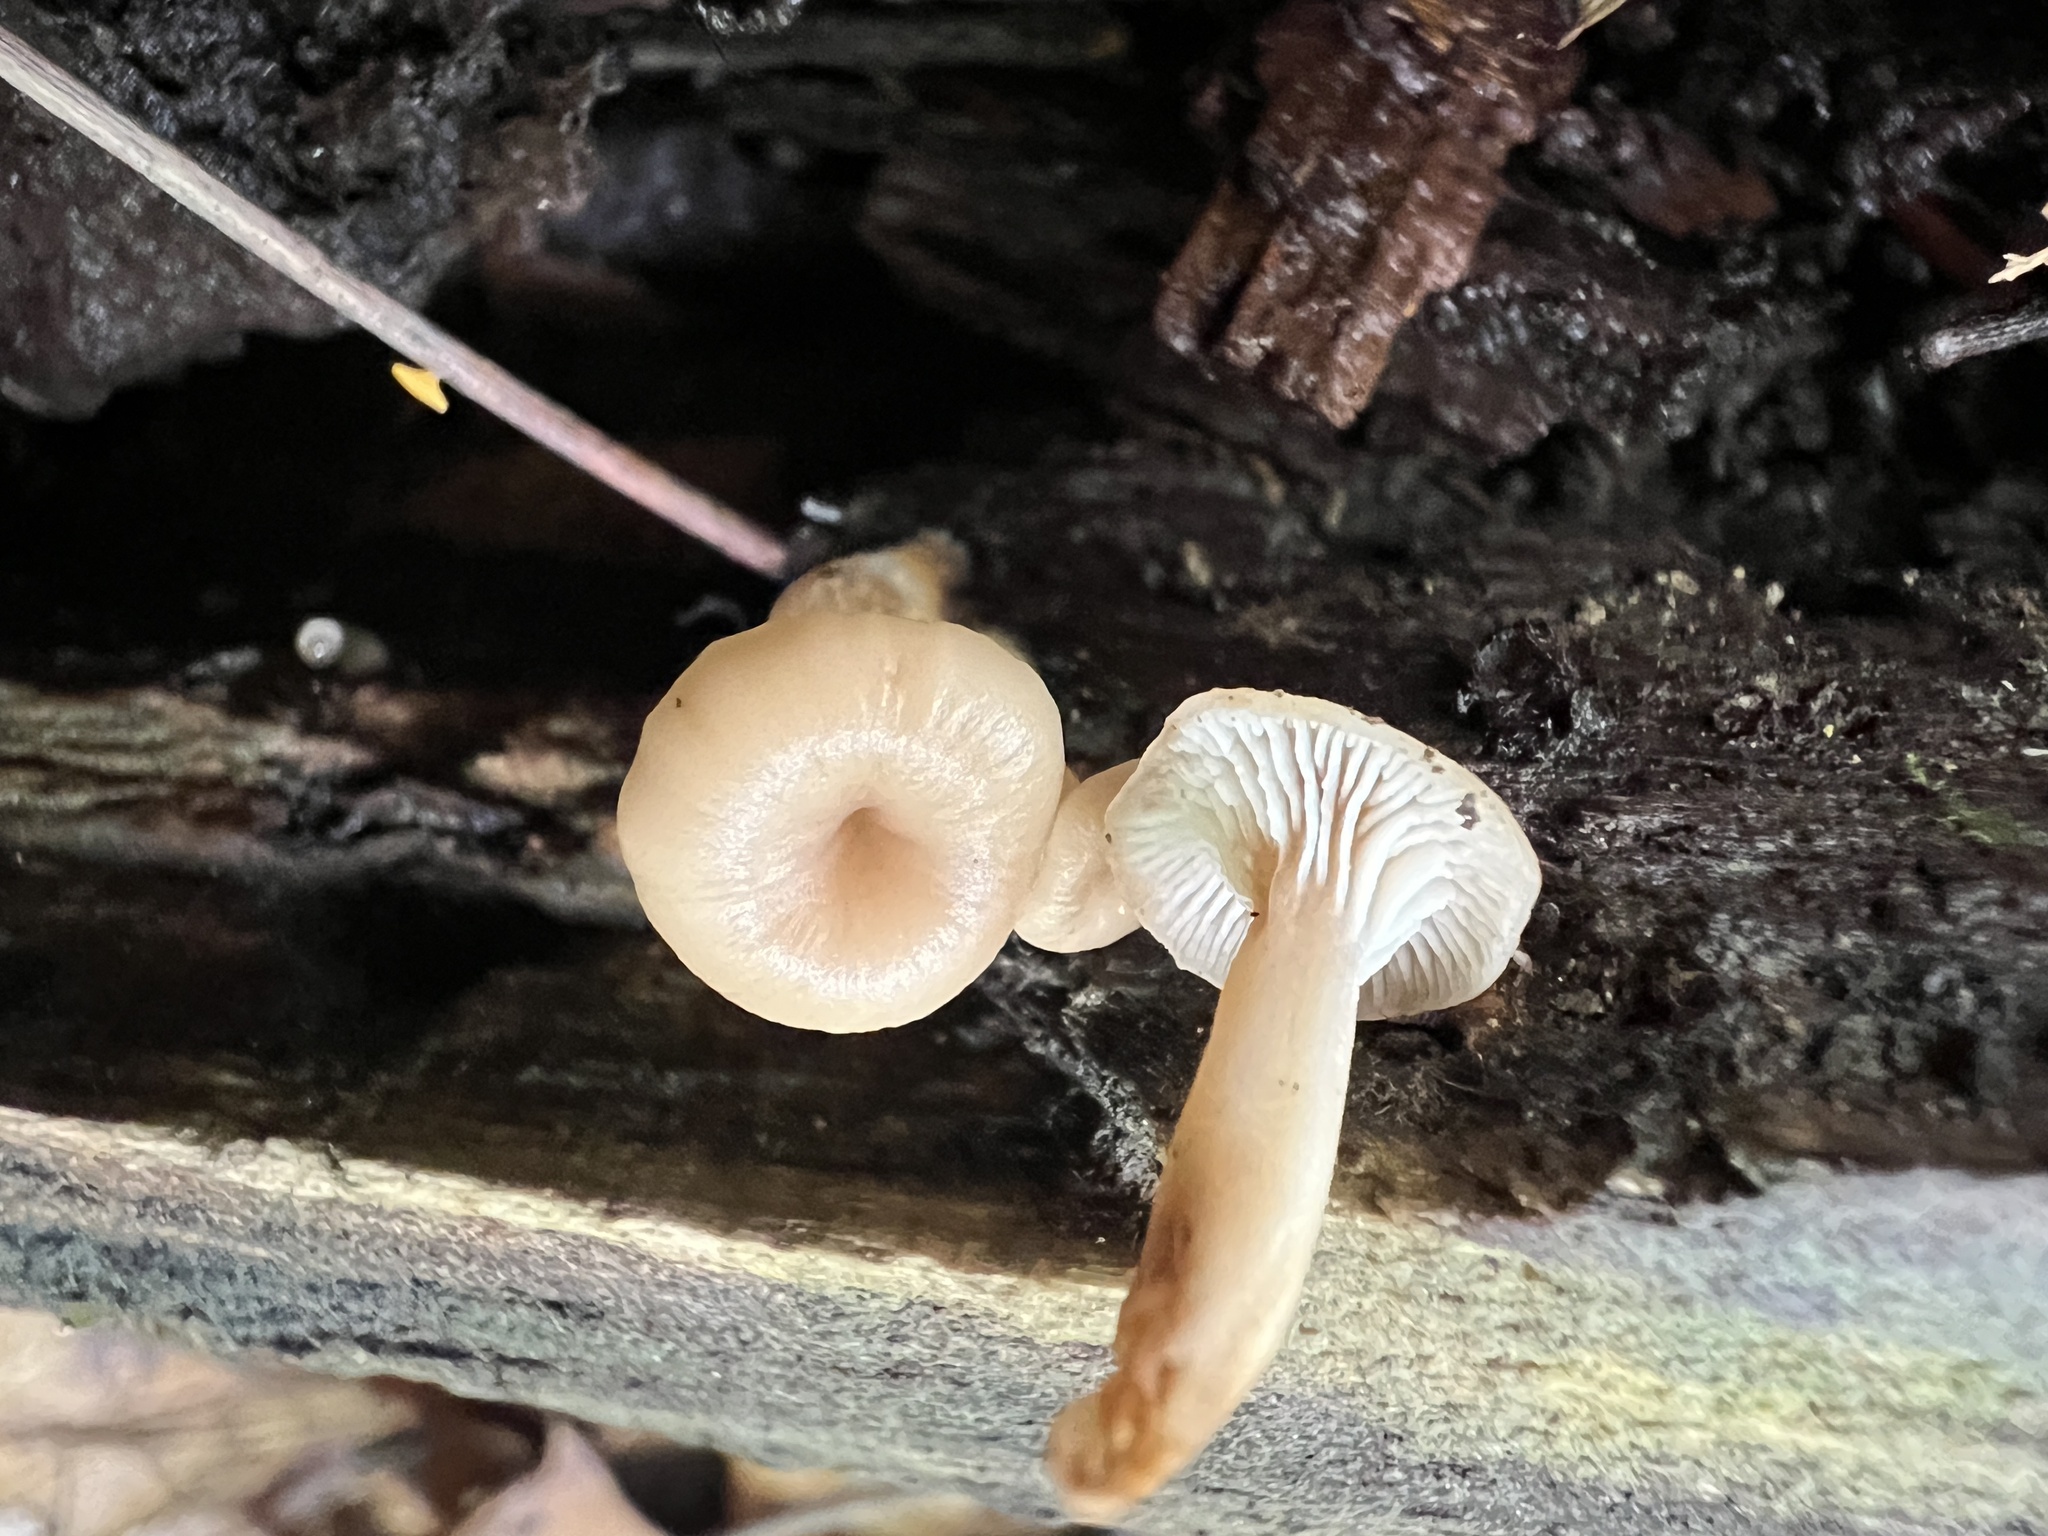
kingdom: Fungi
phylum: Basidiomycota
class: Agaricomycetes
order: Russulales
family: Auriscalpiaceae
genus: Lentinellus
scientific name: Lentinellus micheneri
